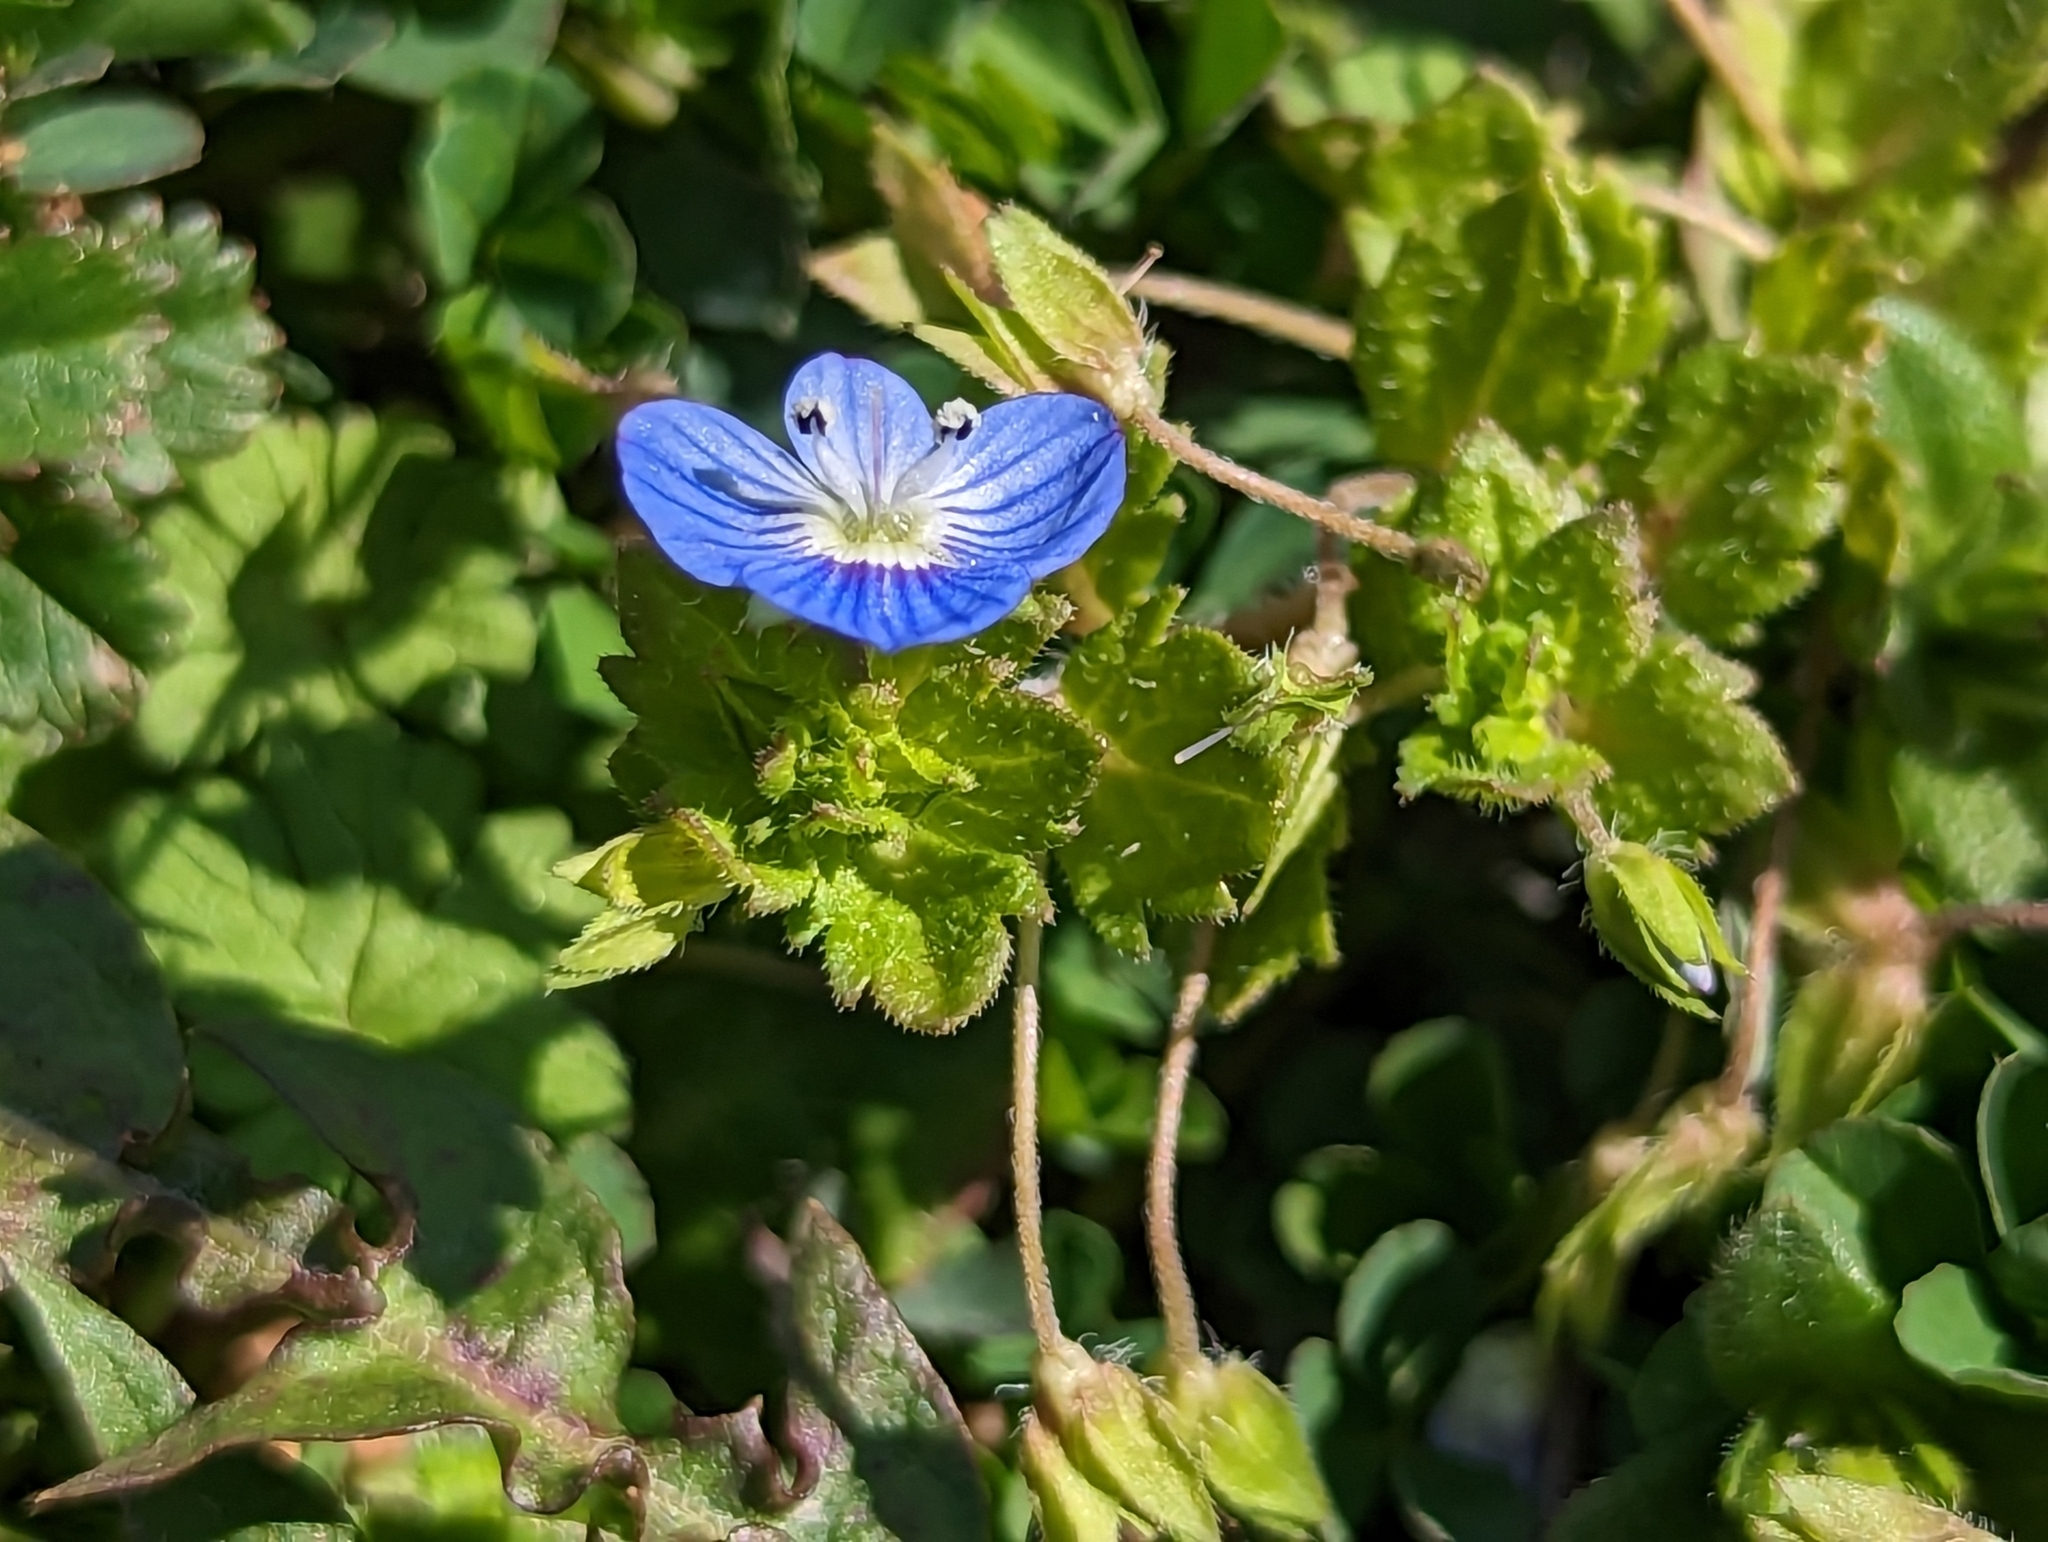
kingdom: Plantae
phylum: Tracheophyta
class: Magnoliopsida
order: Lamiales
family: Plantaginaceae
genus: Veronica
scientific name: Veronica persica
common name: Common field-speedwell
